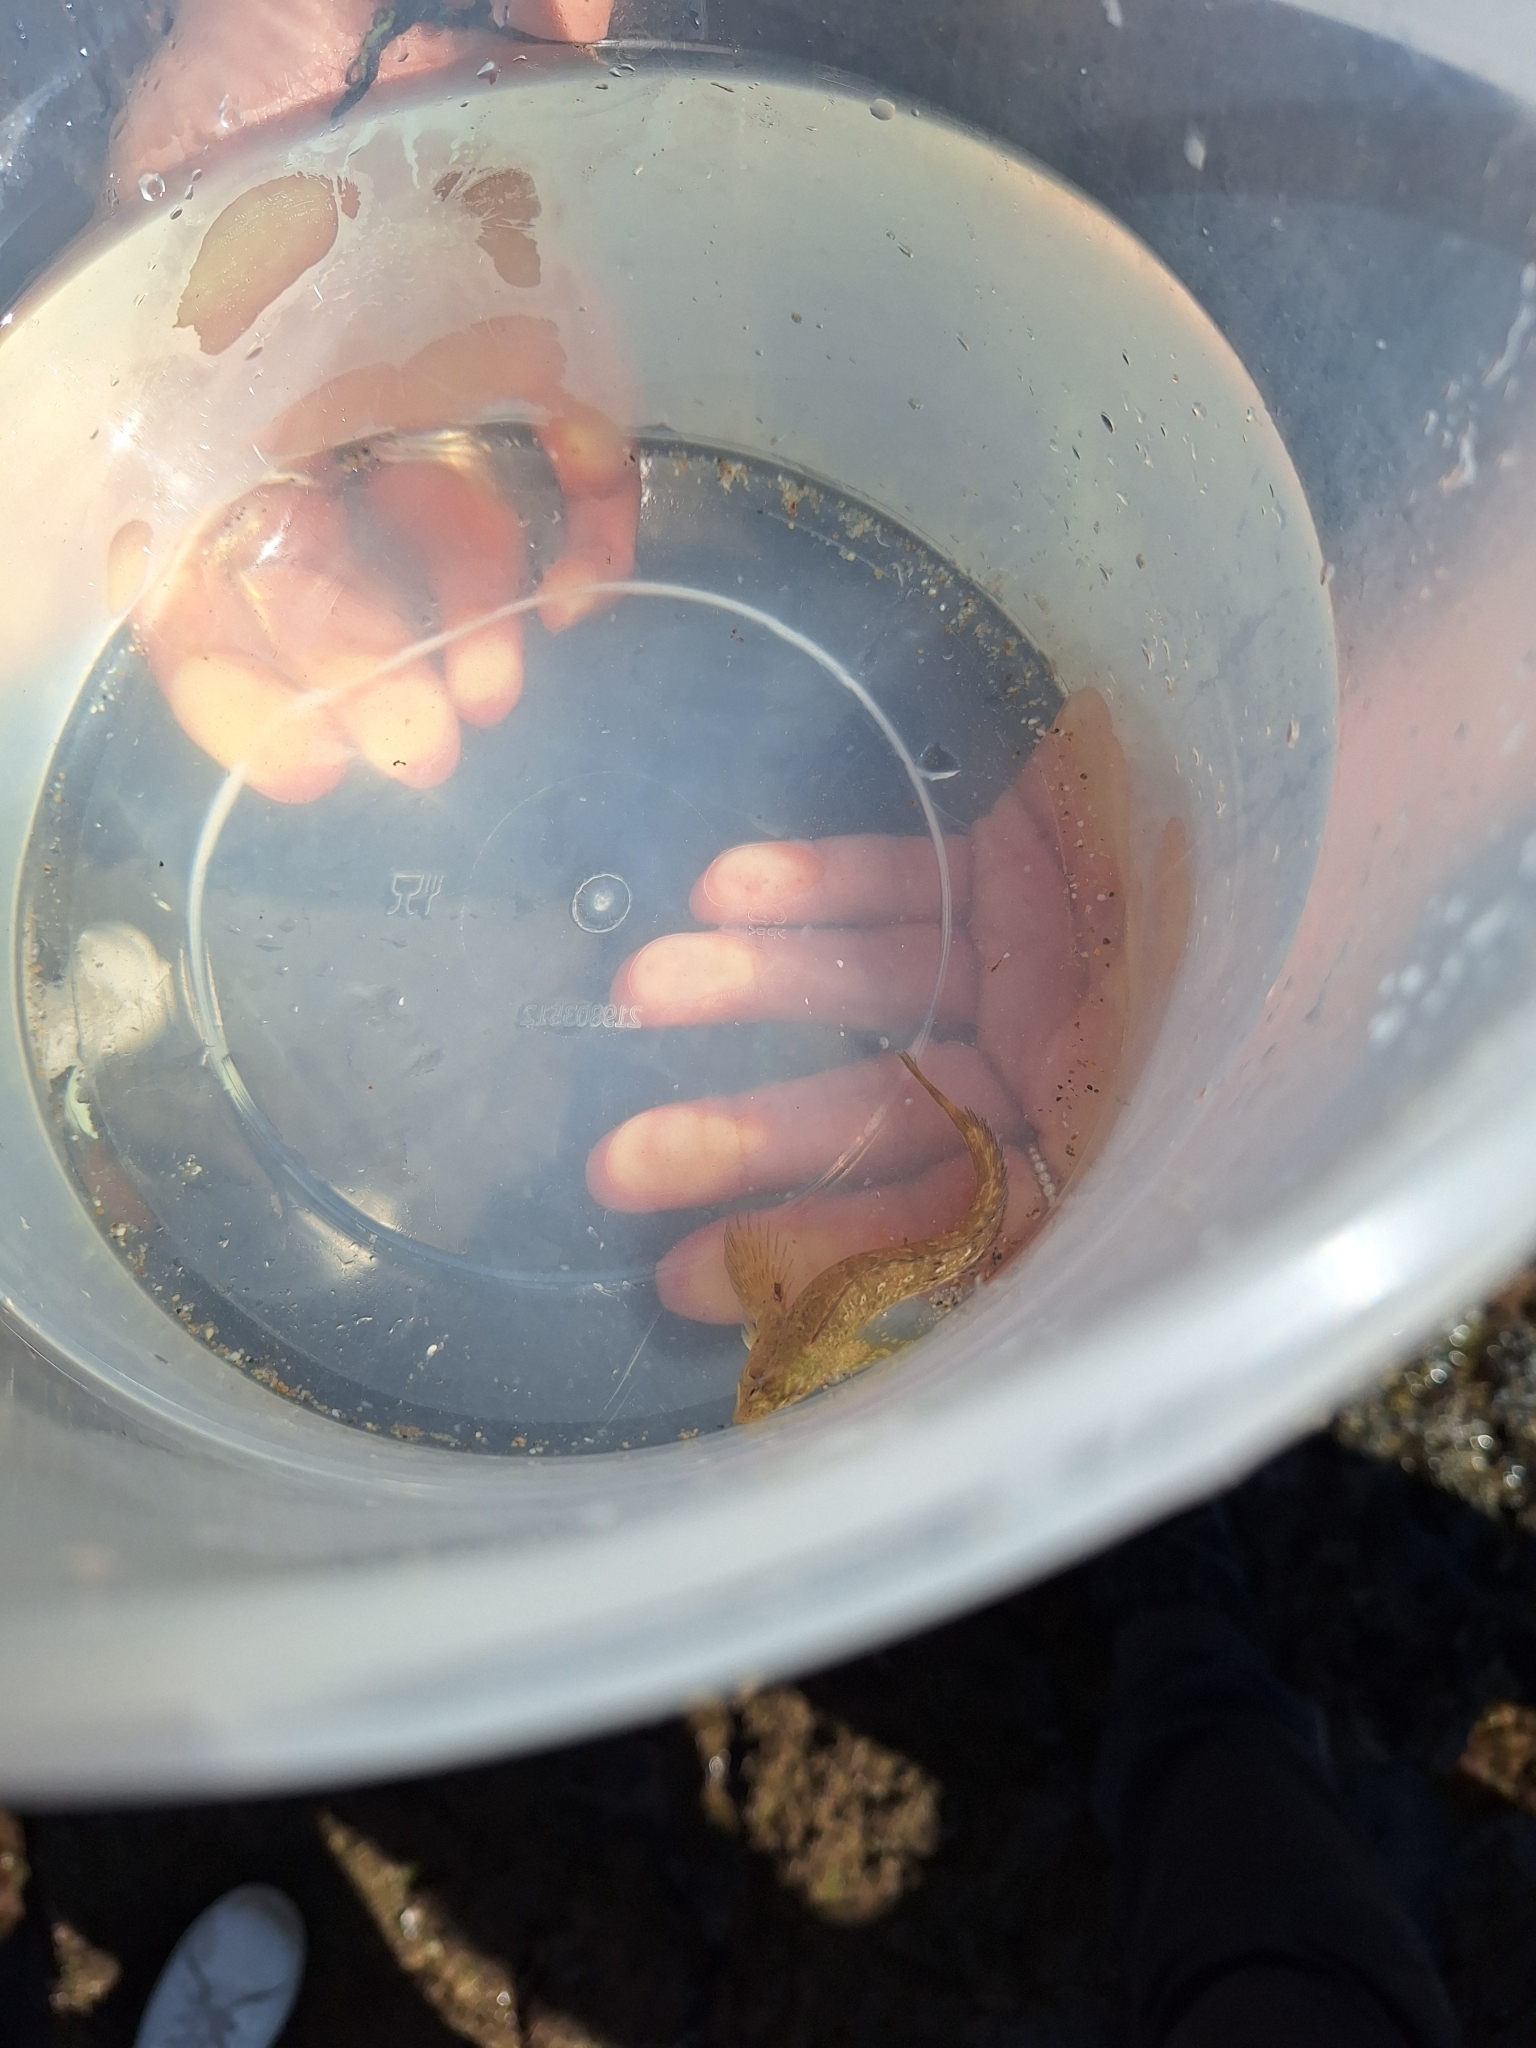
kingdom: Animalia
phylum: Chordata
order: Perciformes
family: Blenniidae
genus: Lipophrys
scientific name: Lipophrys pholis
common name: Shanny
